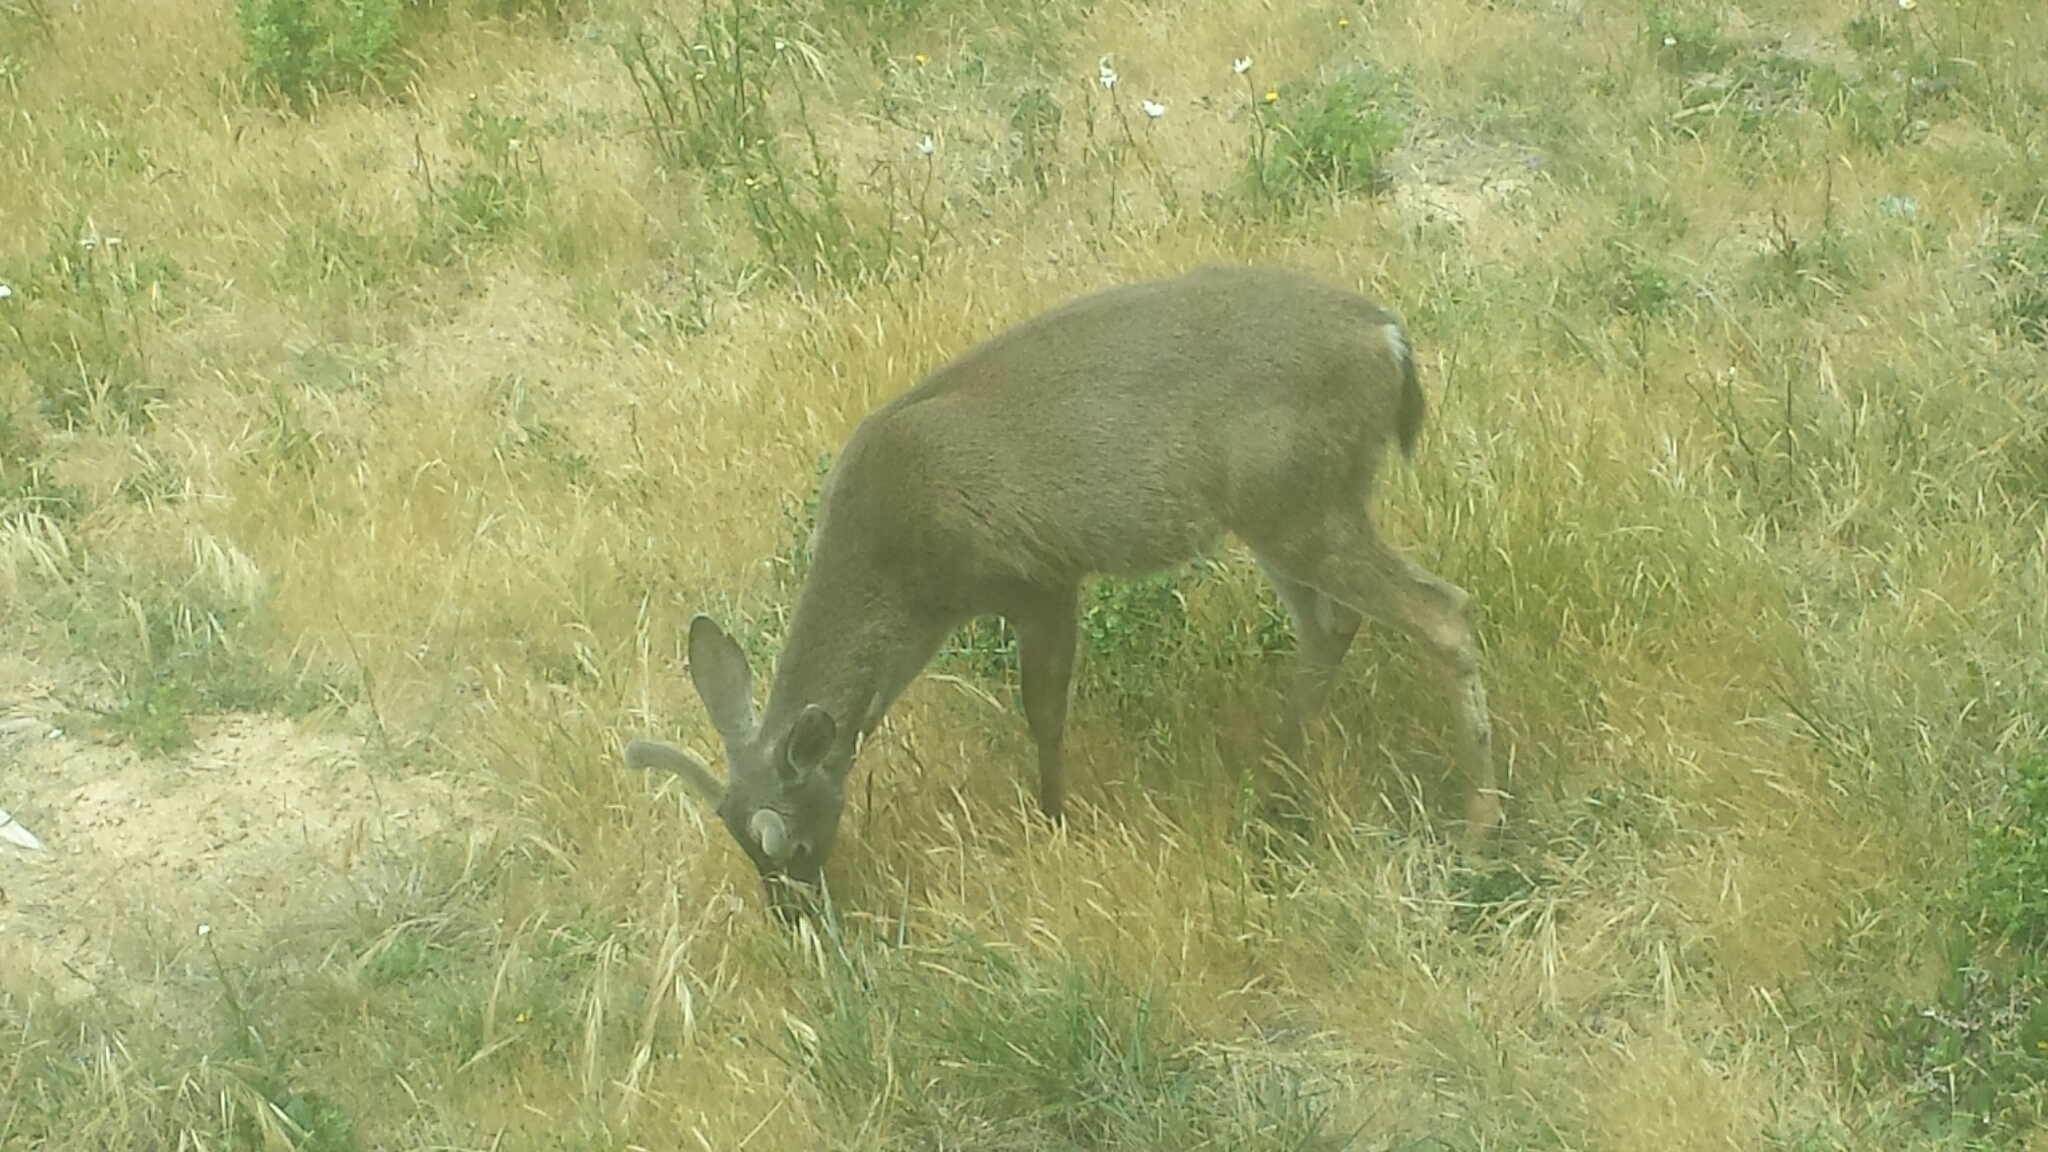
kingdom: Animalia
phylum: Chordata
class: Mammalia
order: Artiodactyla
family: Cervidae
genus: Odocoileus
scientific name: Odocoileus hemionus
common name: Mule deer
